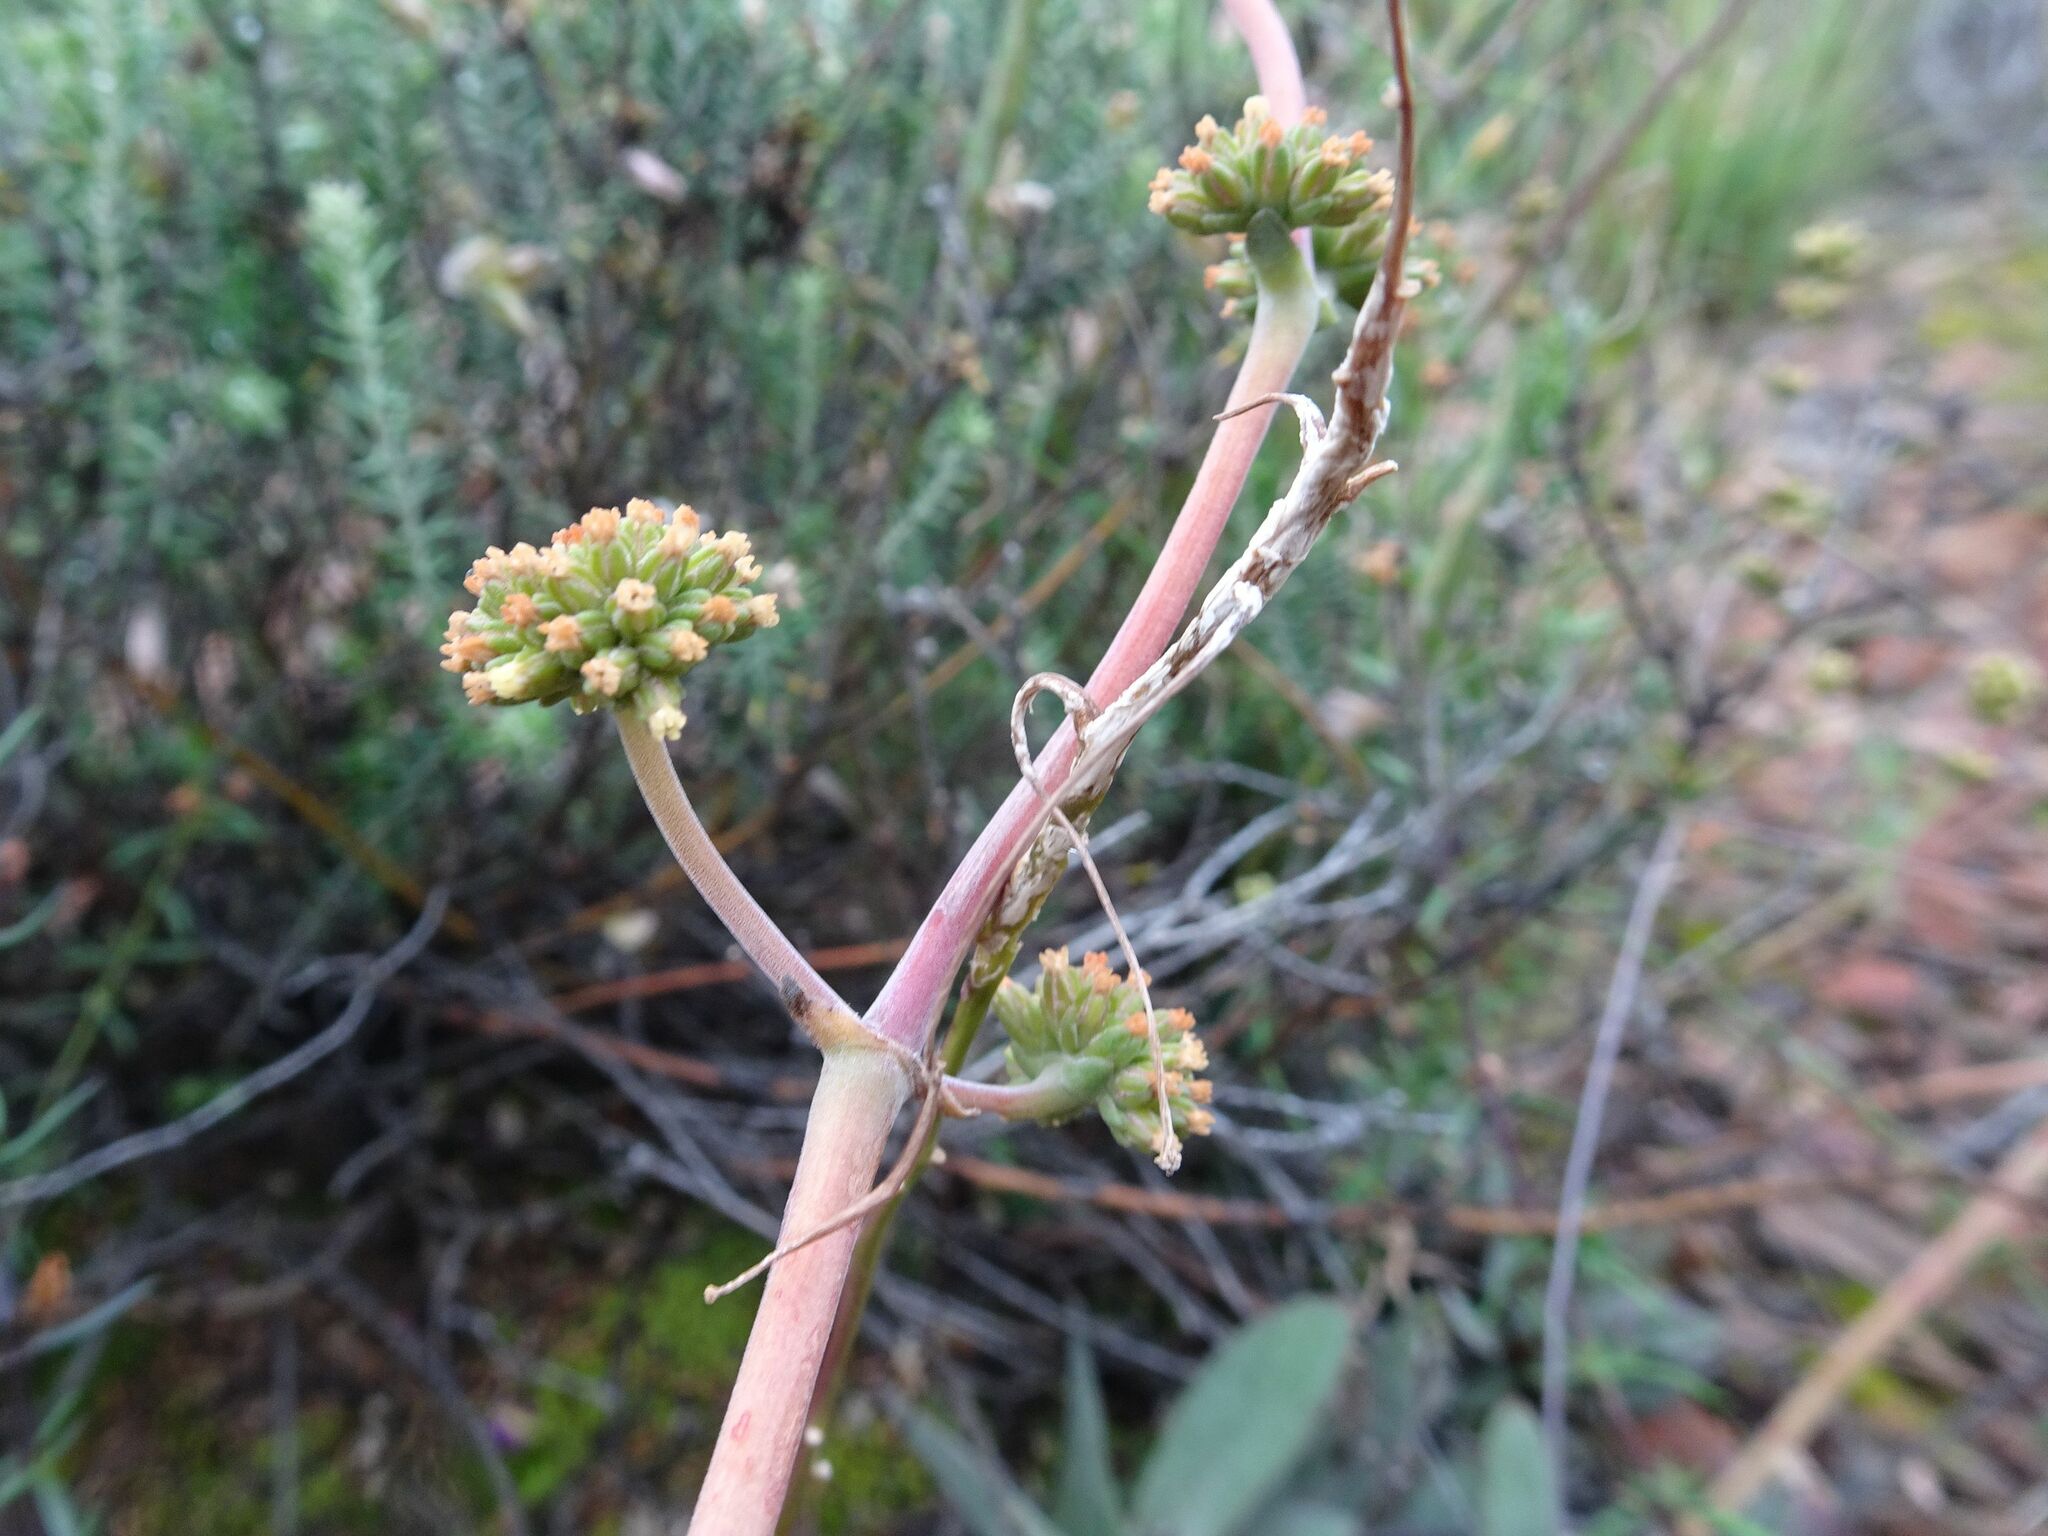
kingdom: Plantae
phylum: Tracheophyta
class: Magnoliopsida
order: Saxifragales
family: Crassulaceae
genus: Crassula
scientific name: Crassula cotyledonis
